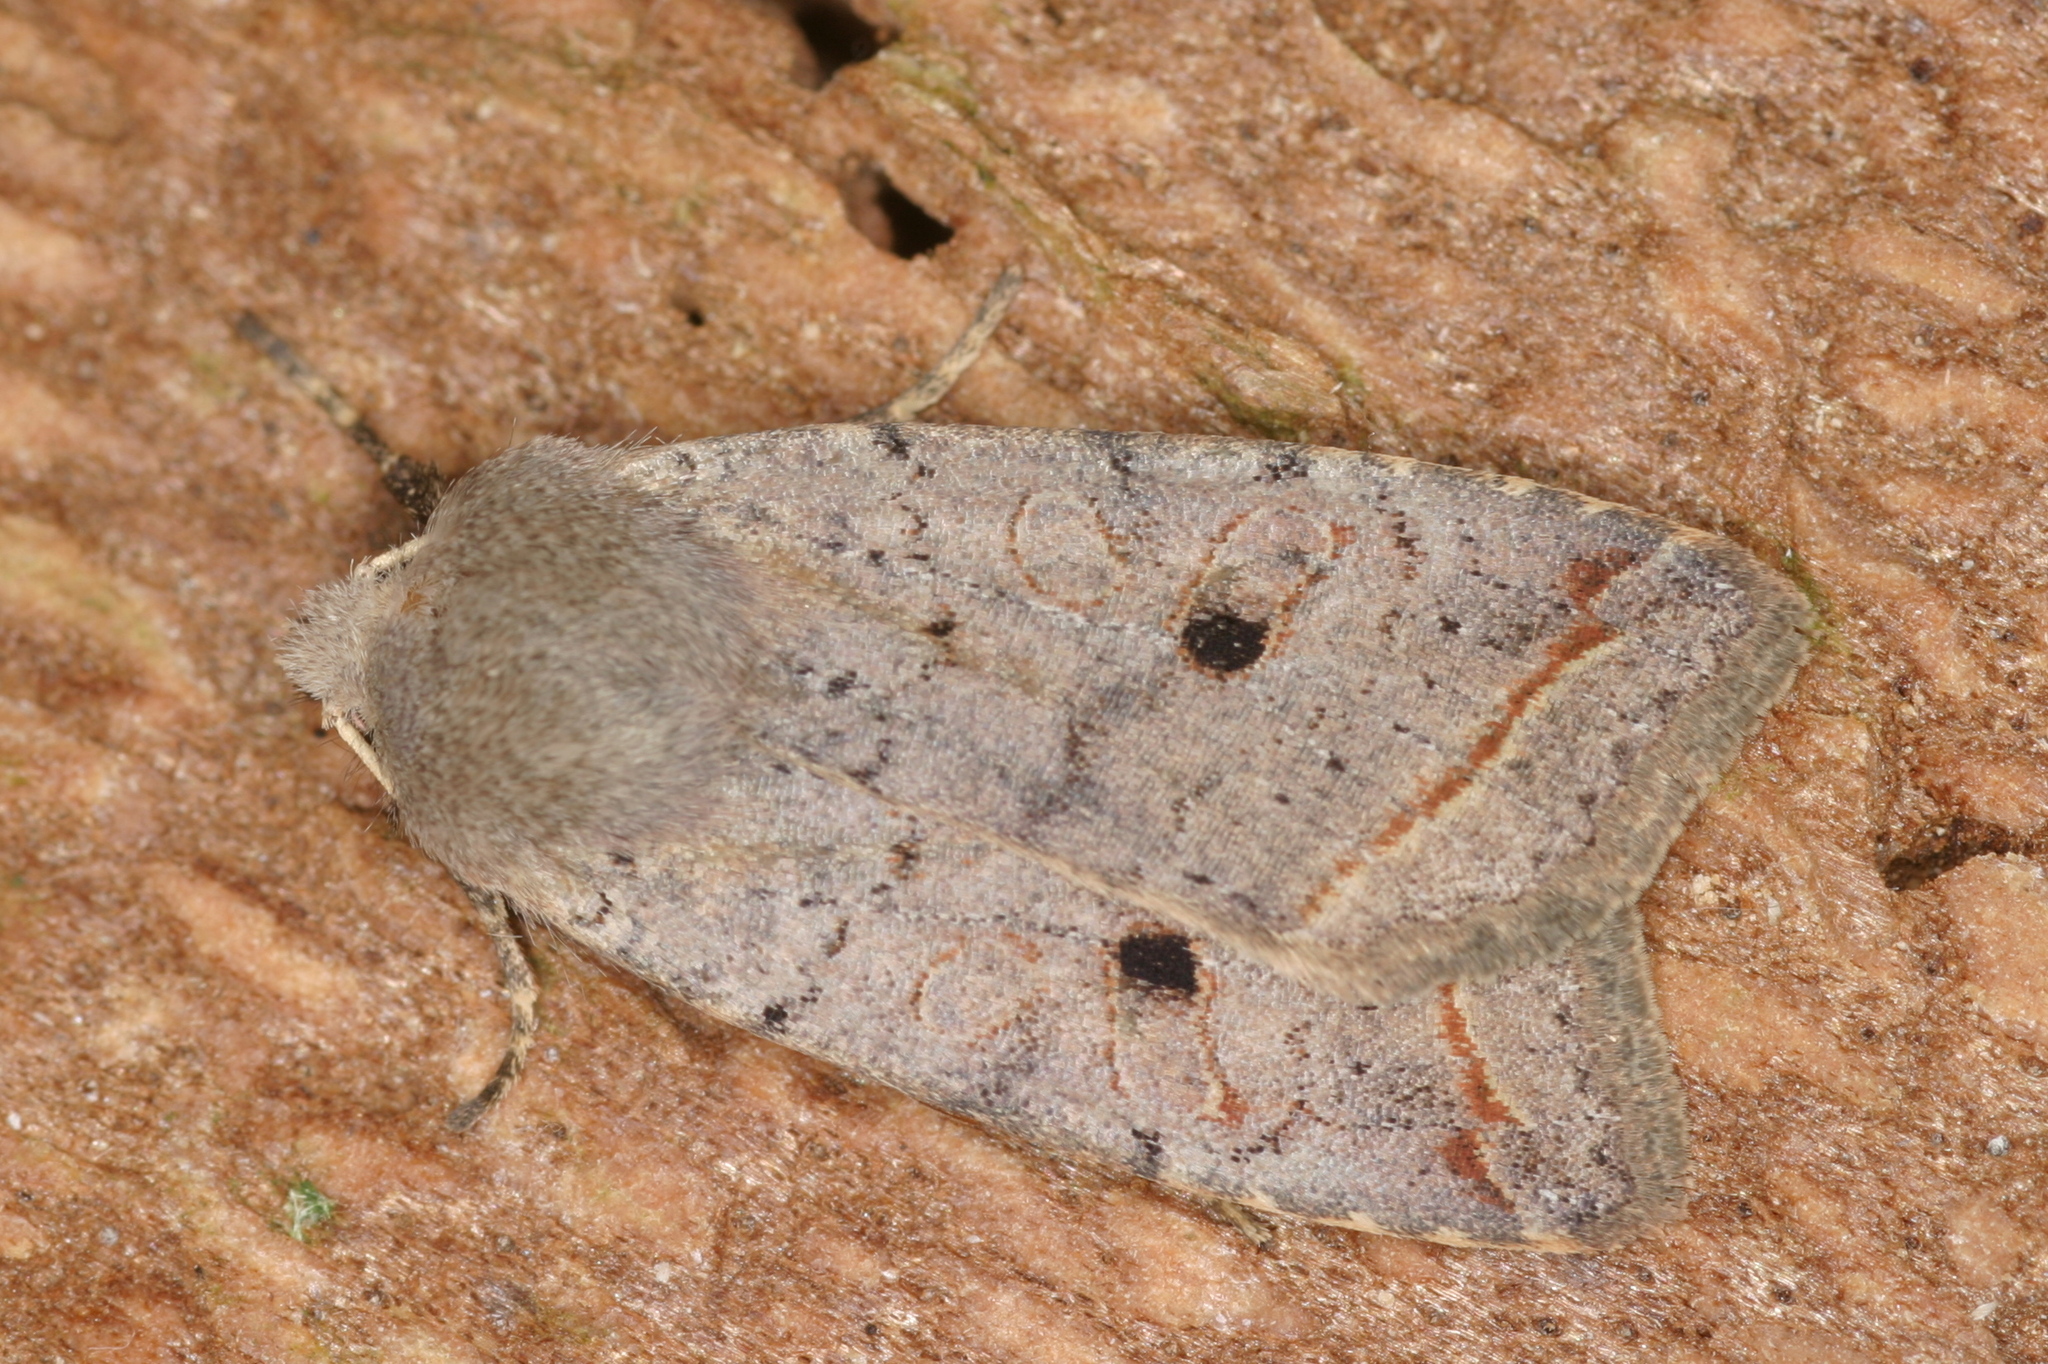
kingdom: Animalia
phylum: Arthropoda
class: Insecta
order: Lepidoptera
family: Noctuidae
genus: Agrochola
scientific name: Agrochola lota
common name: Red-line quaker
